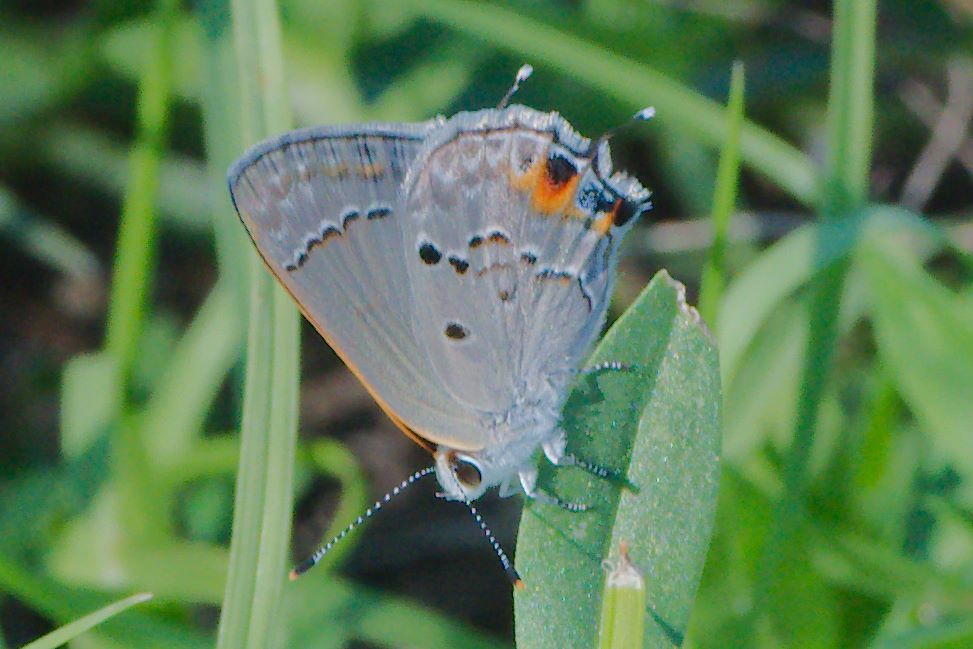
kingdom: Animalia
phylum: Arthropoda
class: Insecta
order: Lepidoptera
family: Lycaenidae
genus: Callicista
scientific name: Callicista columella
